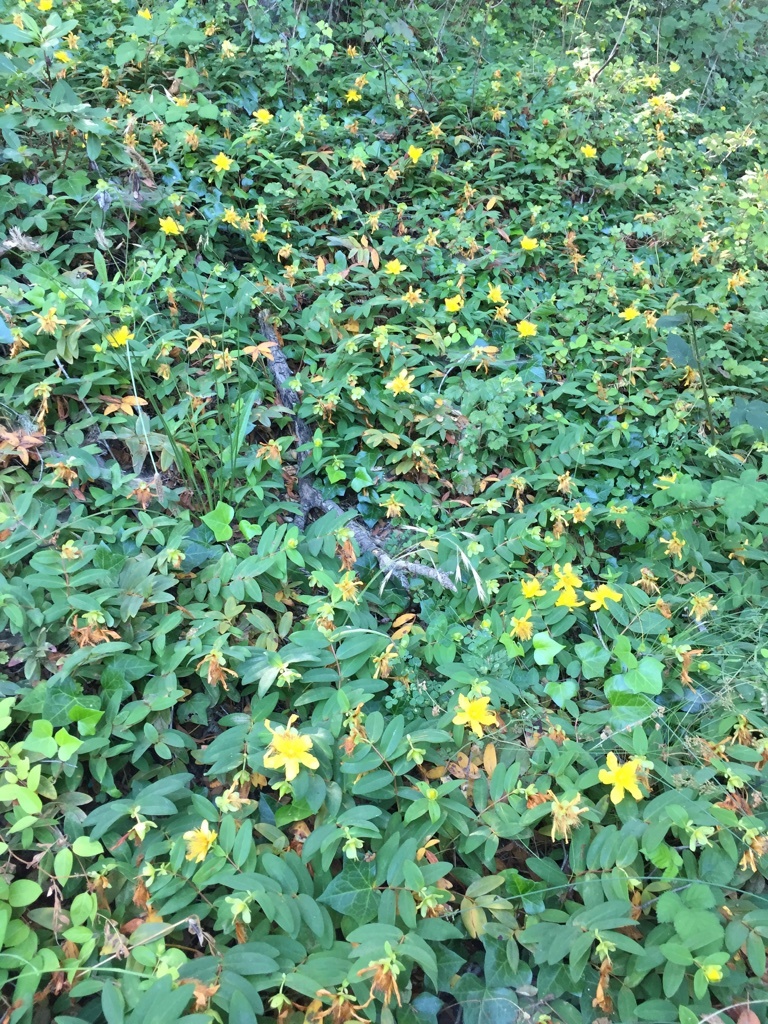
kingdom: Plantae
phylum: Tracheophyta
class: Magnoliopsida
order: Malpighiales
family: Hypericaceae
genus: Hypericum
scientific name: Hypericum calycinum
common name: Rose-of-sharon
